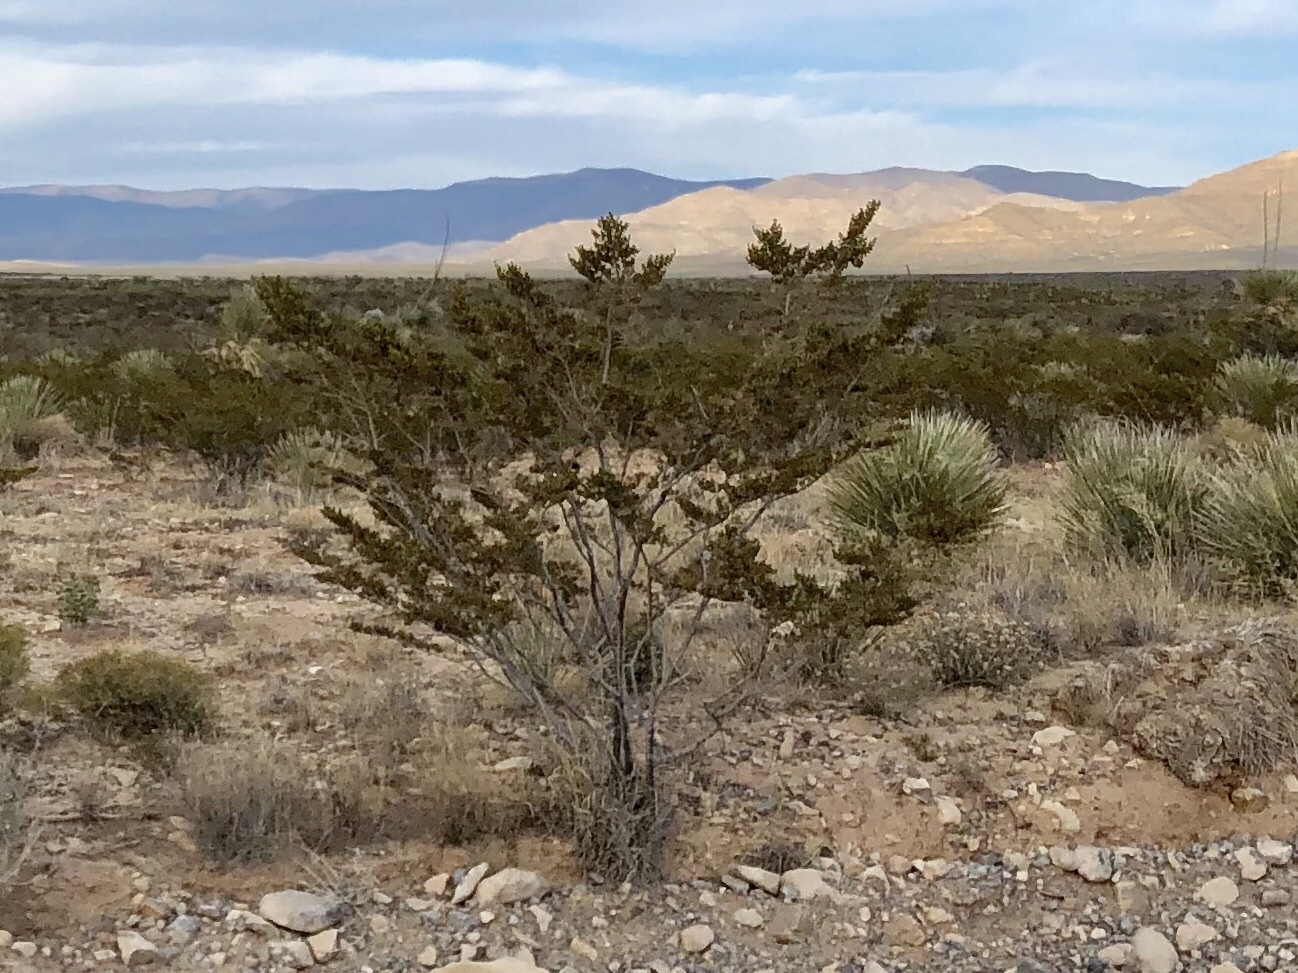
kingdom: Plantae
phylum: Tracheophyta
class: Magnoliopsida
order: Zygophyllales
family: Zygophyllaceae
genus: Larrea
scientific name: Larrea tridentata
